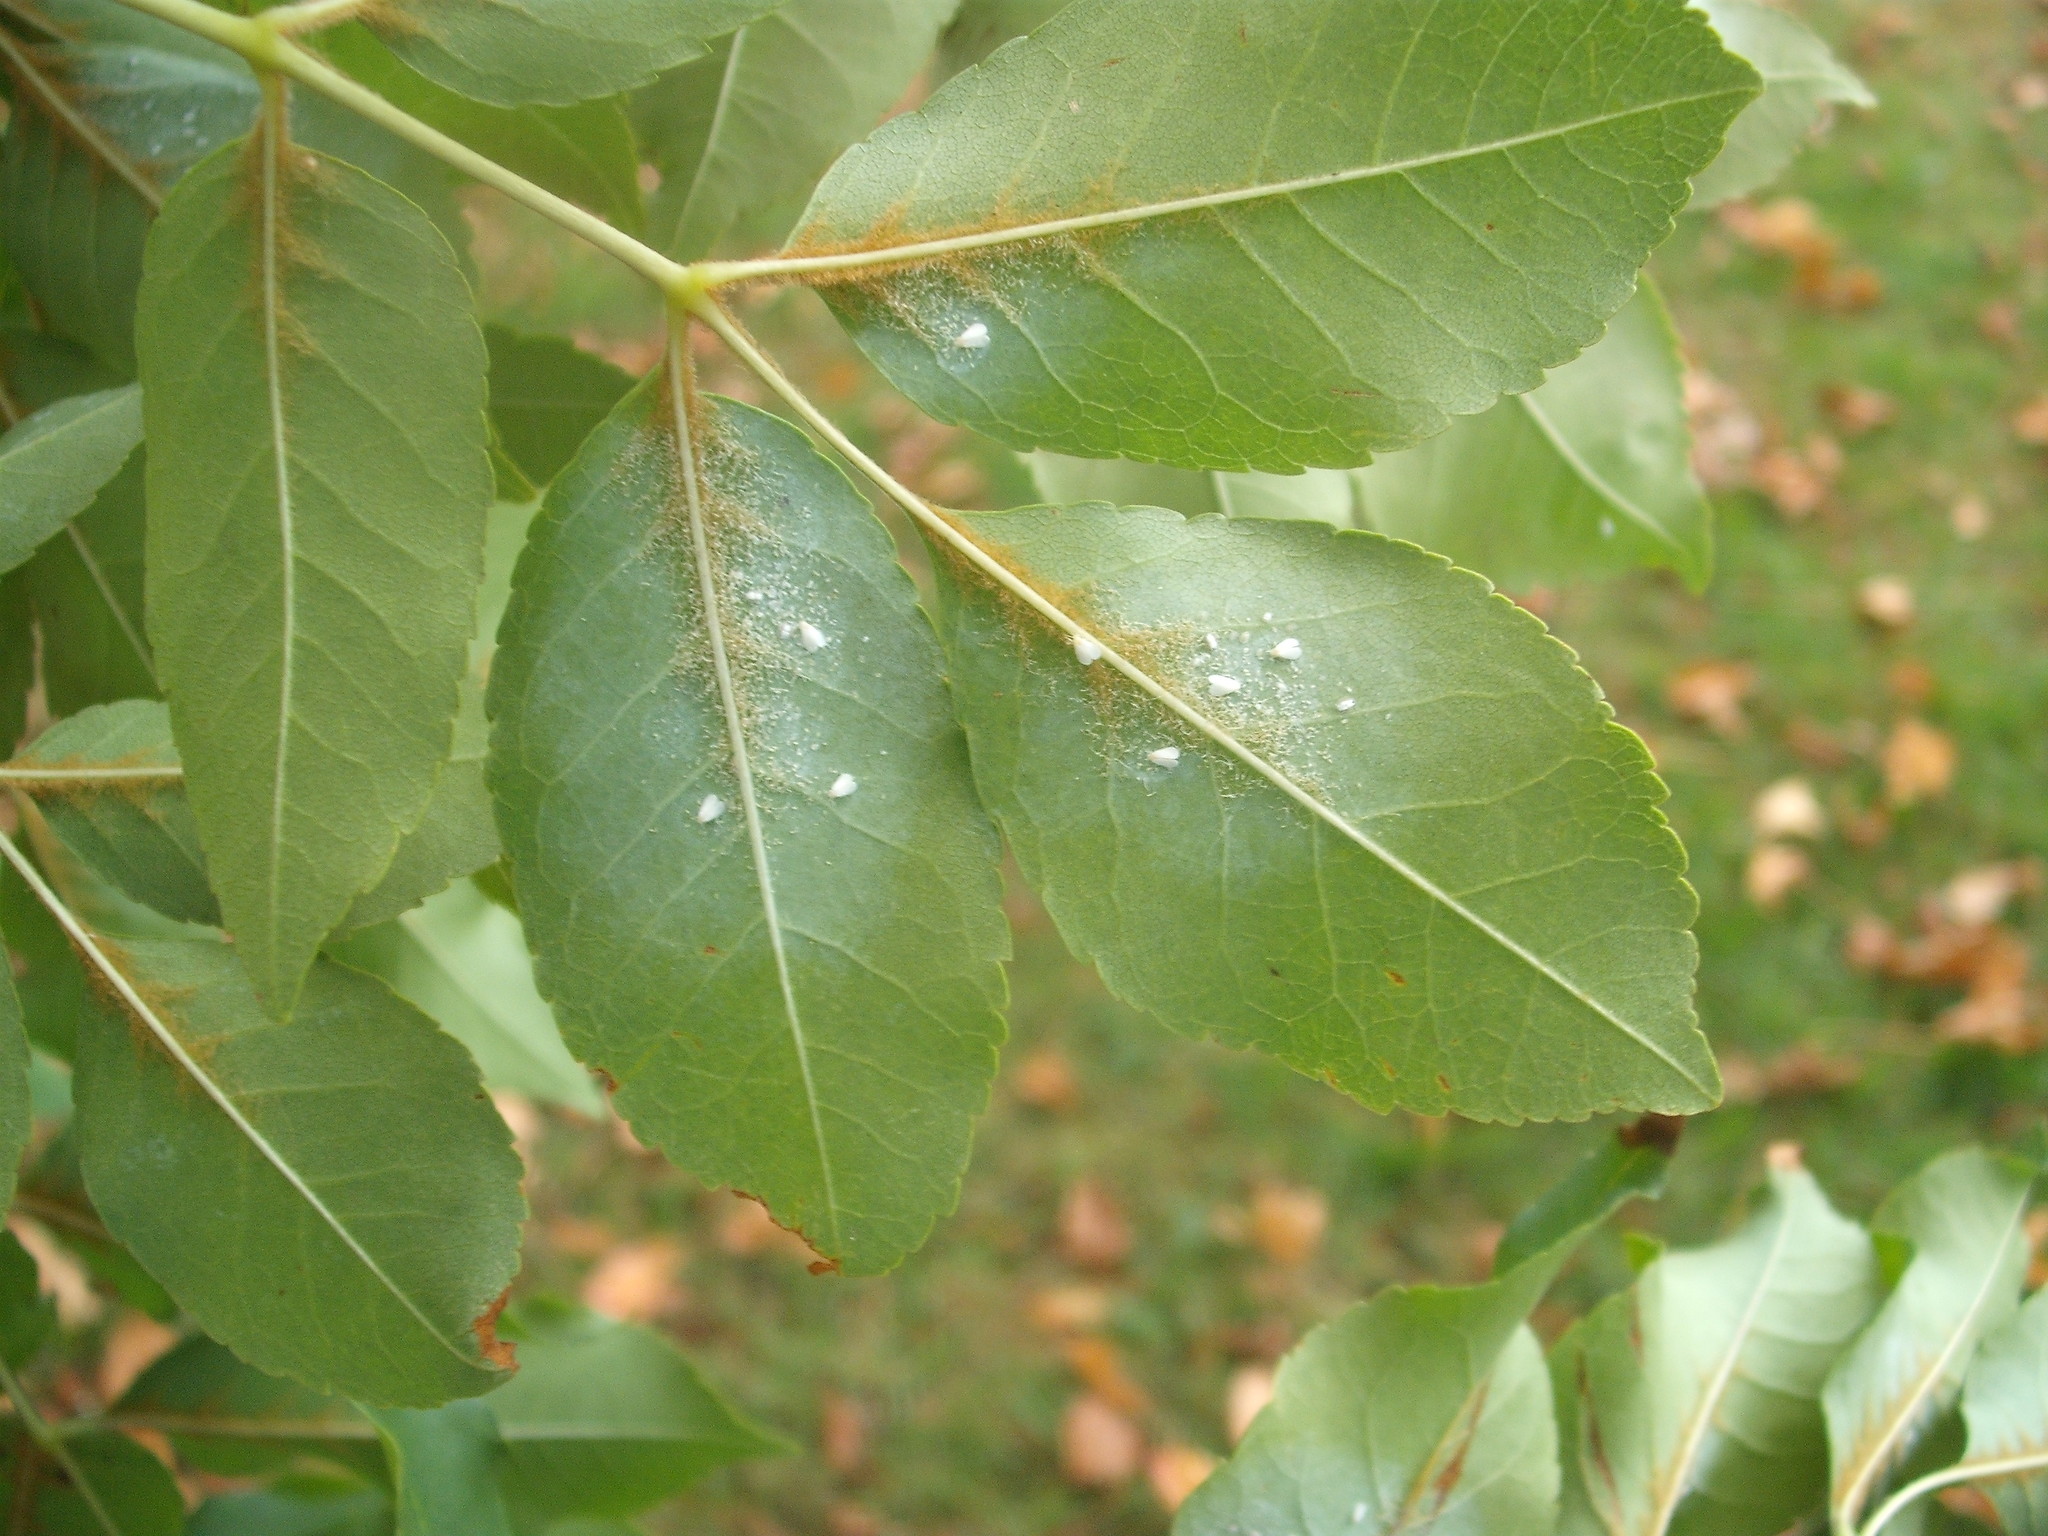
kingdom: Animalia
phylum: Arthropoda
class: Insecta
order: Hemiptera
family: Aleyrodidae
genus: Siphoninus
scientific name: Siphoninus phillyreae
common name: Ash whitefly
